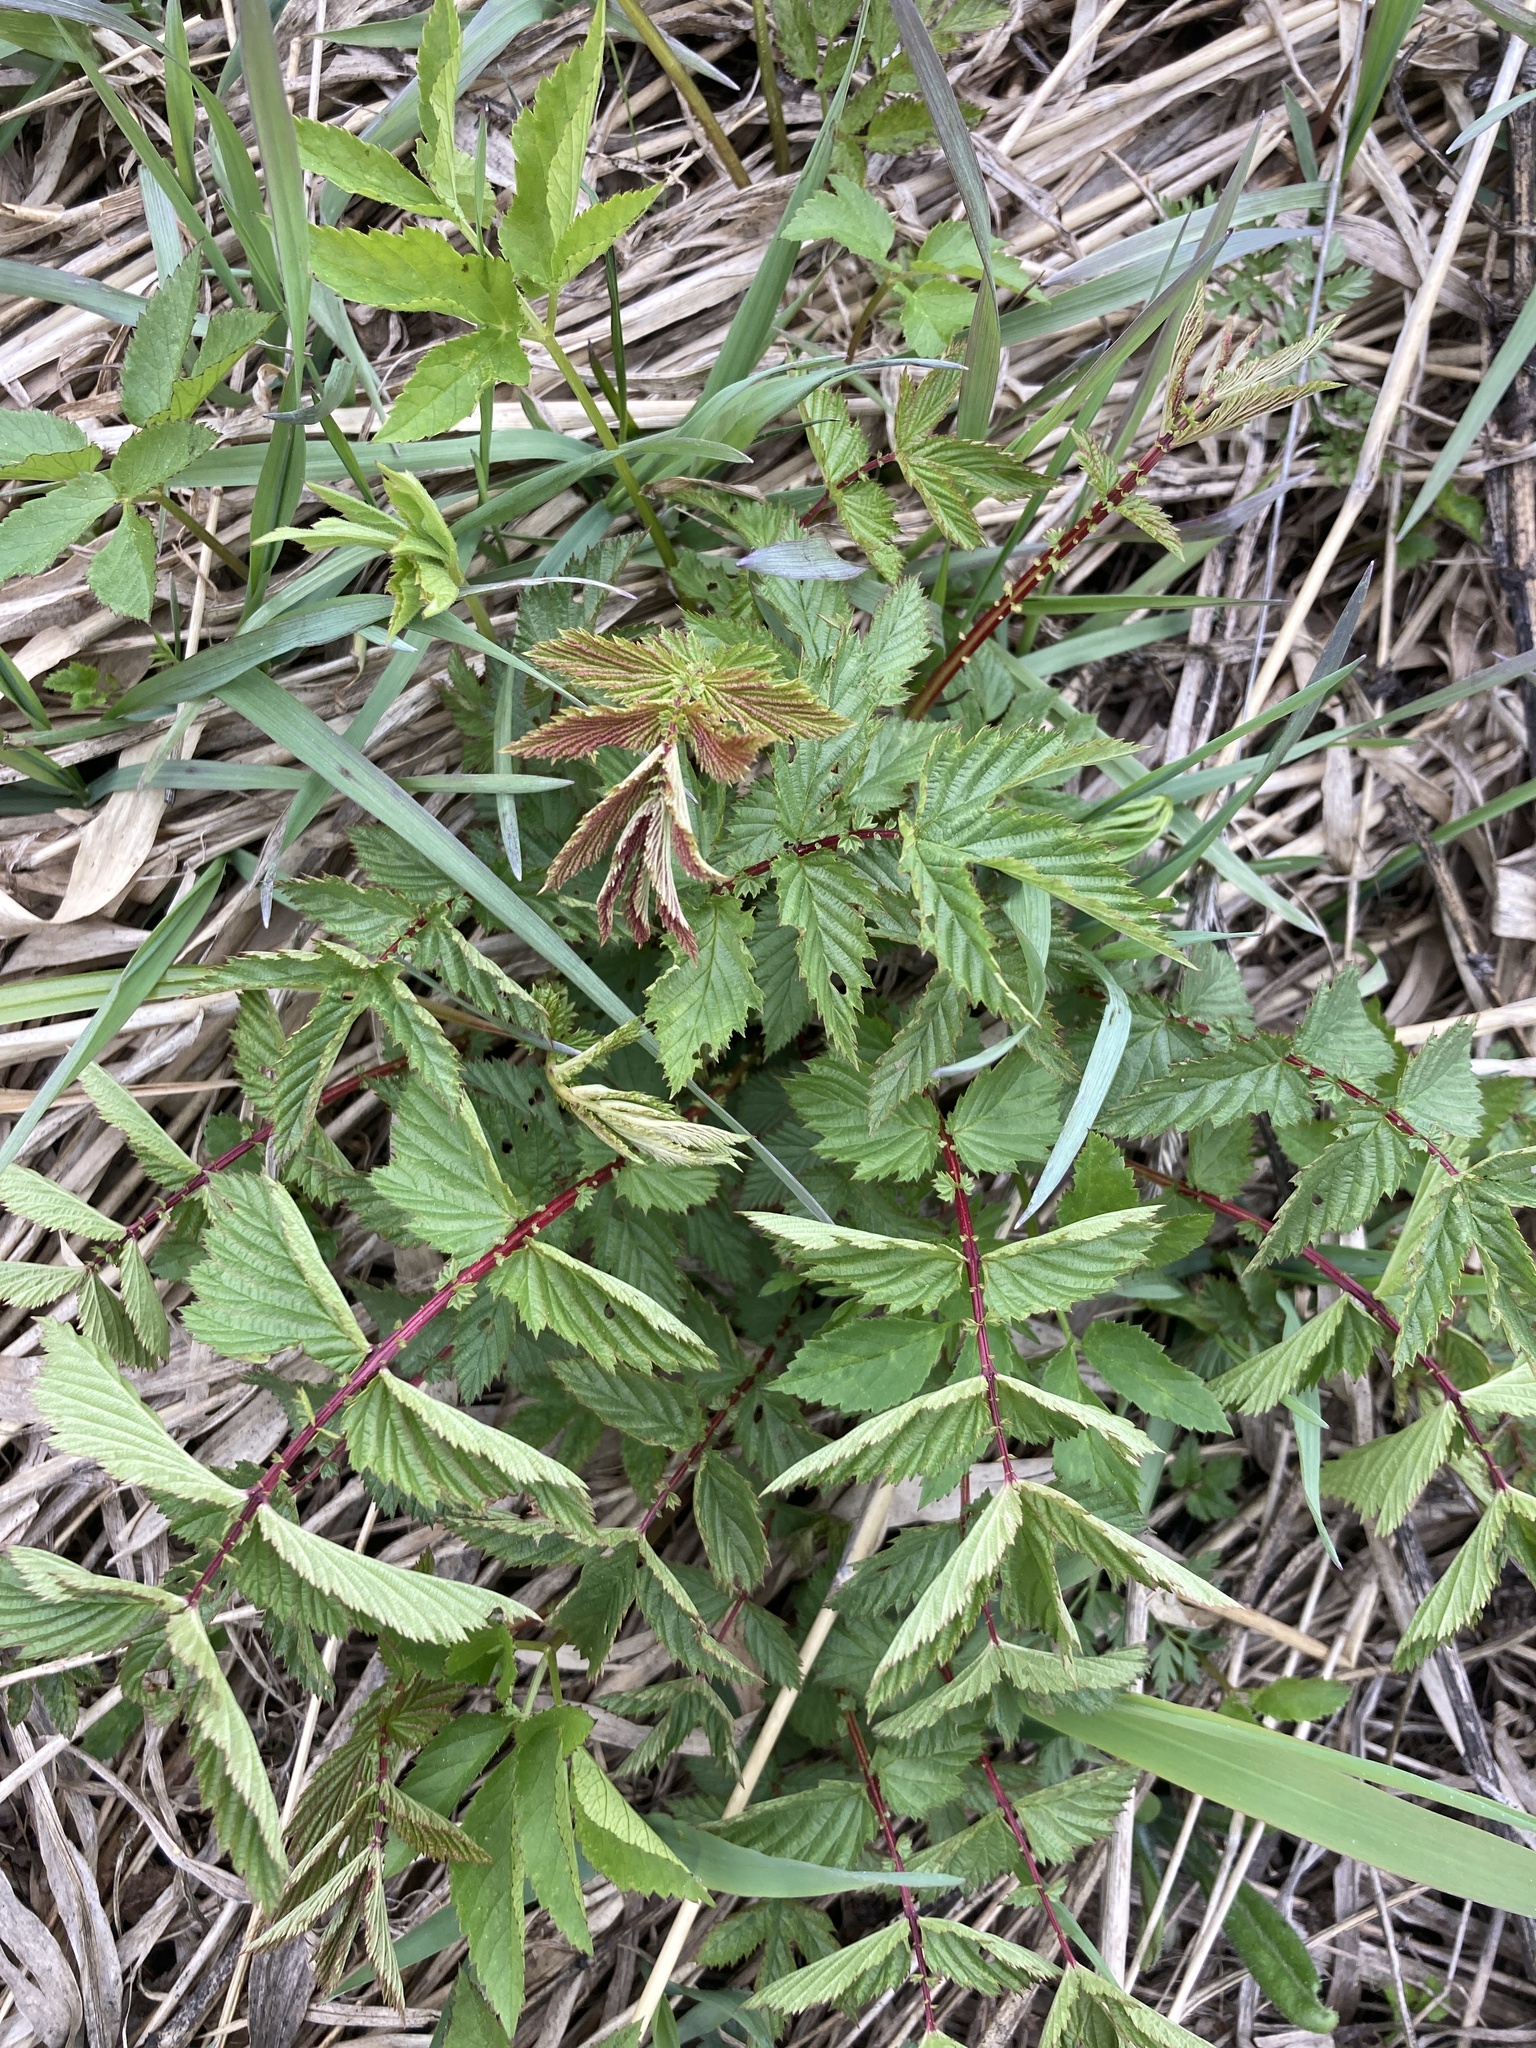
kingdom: Plantae
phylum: Tracheophyta
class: Magnoliopsida
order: Rosales
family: Rosaceae
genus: Filipendula
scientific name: Filipendula ulmaria
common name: Meadowsweet
